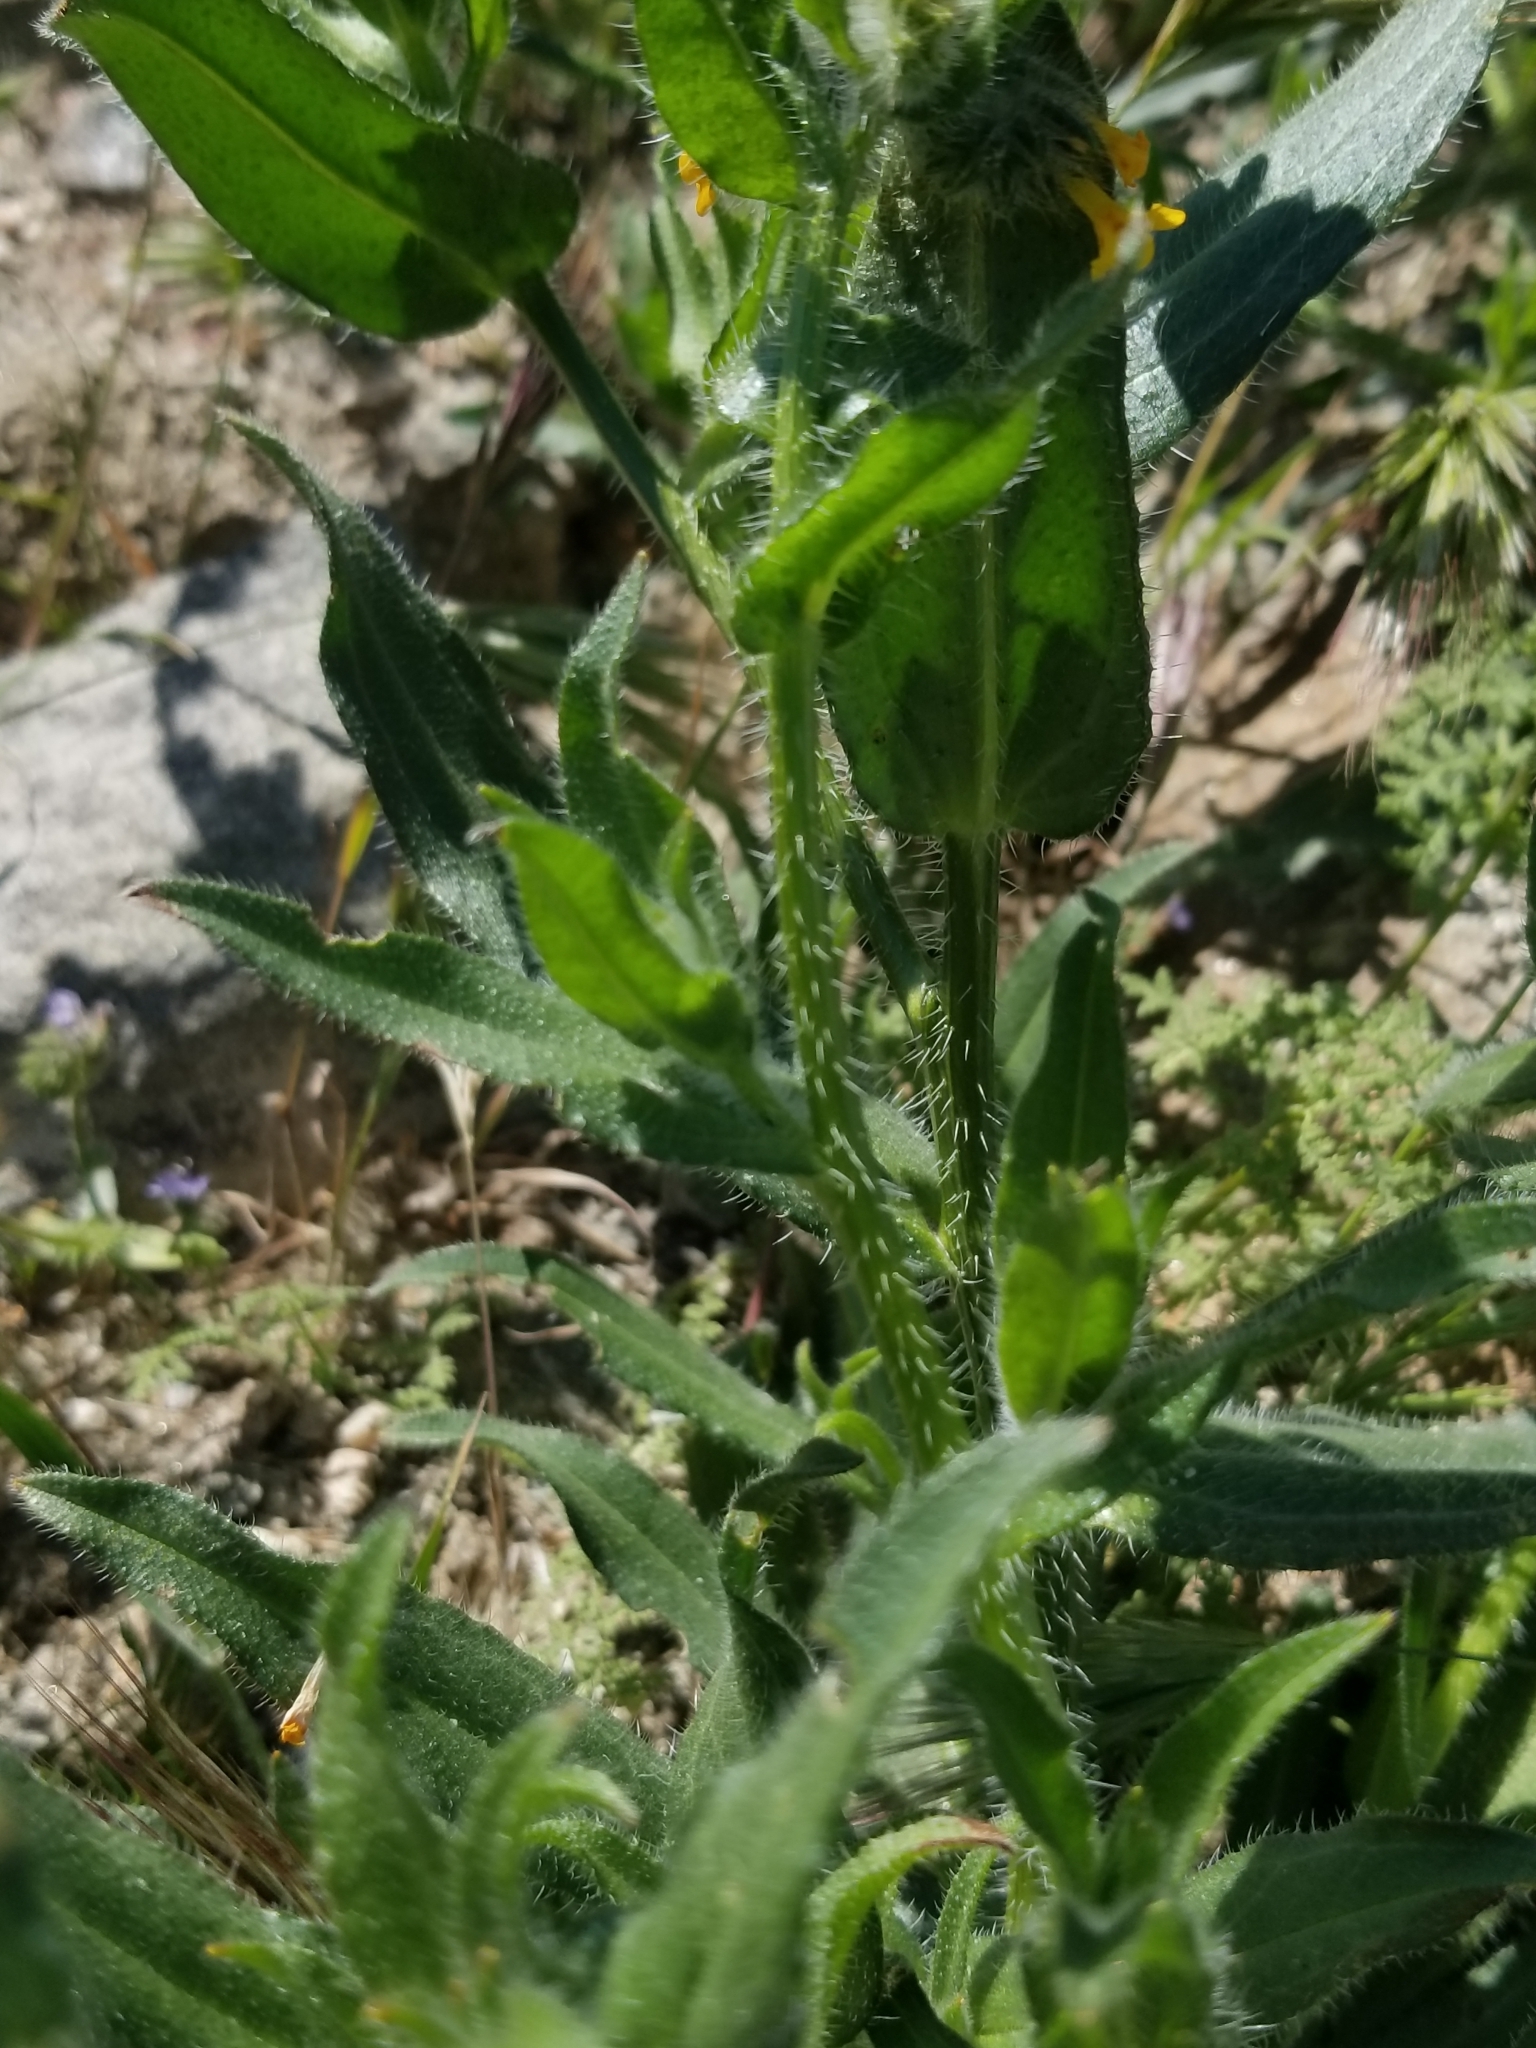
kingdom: Plantae
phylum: Tracheophyta
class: Magnoliopsida
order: Boraginales
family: Boraginaceae
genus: Amsinckia
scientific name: Amsinckia tessellata
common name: Tessellate fiddleneck
